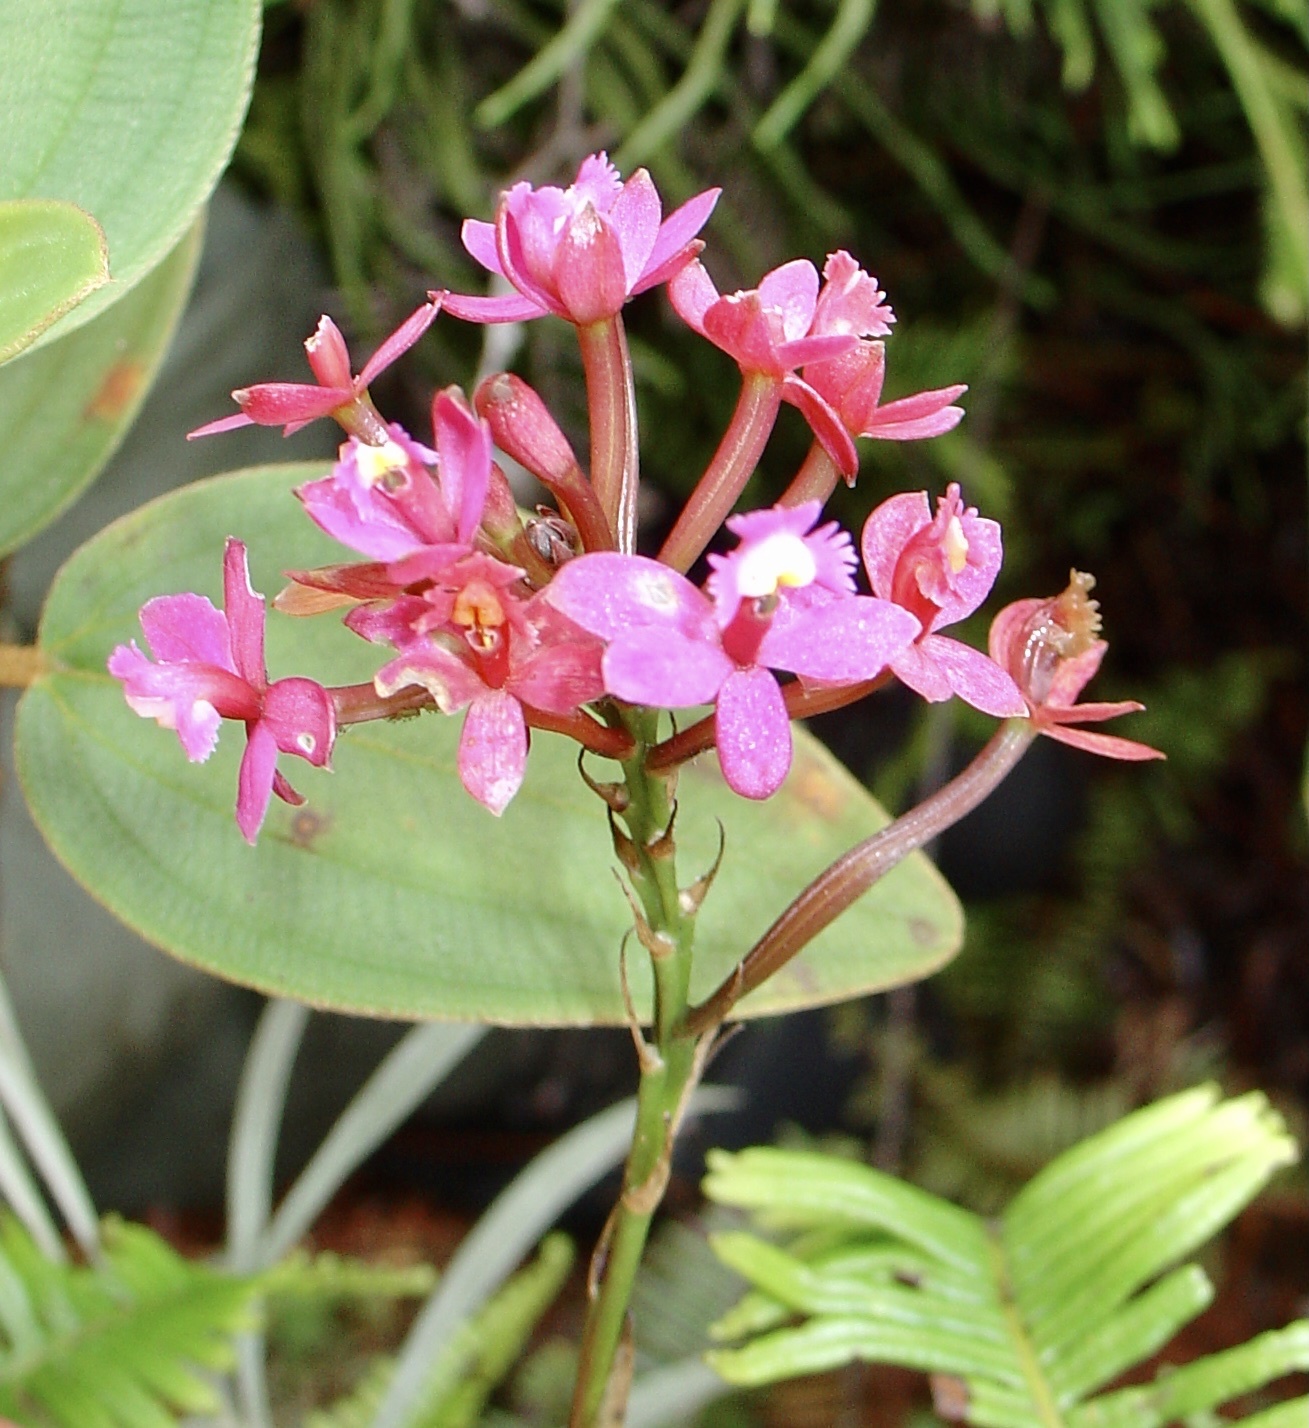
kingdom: Plantae
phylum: Tracheophyta
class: Liliopsida
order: Asparagales
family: Orchidaceae
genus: Epidendrum
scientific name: Epidendrum secundum
